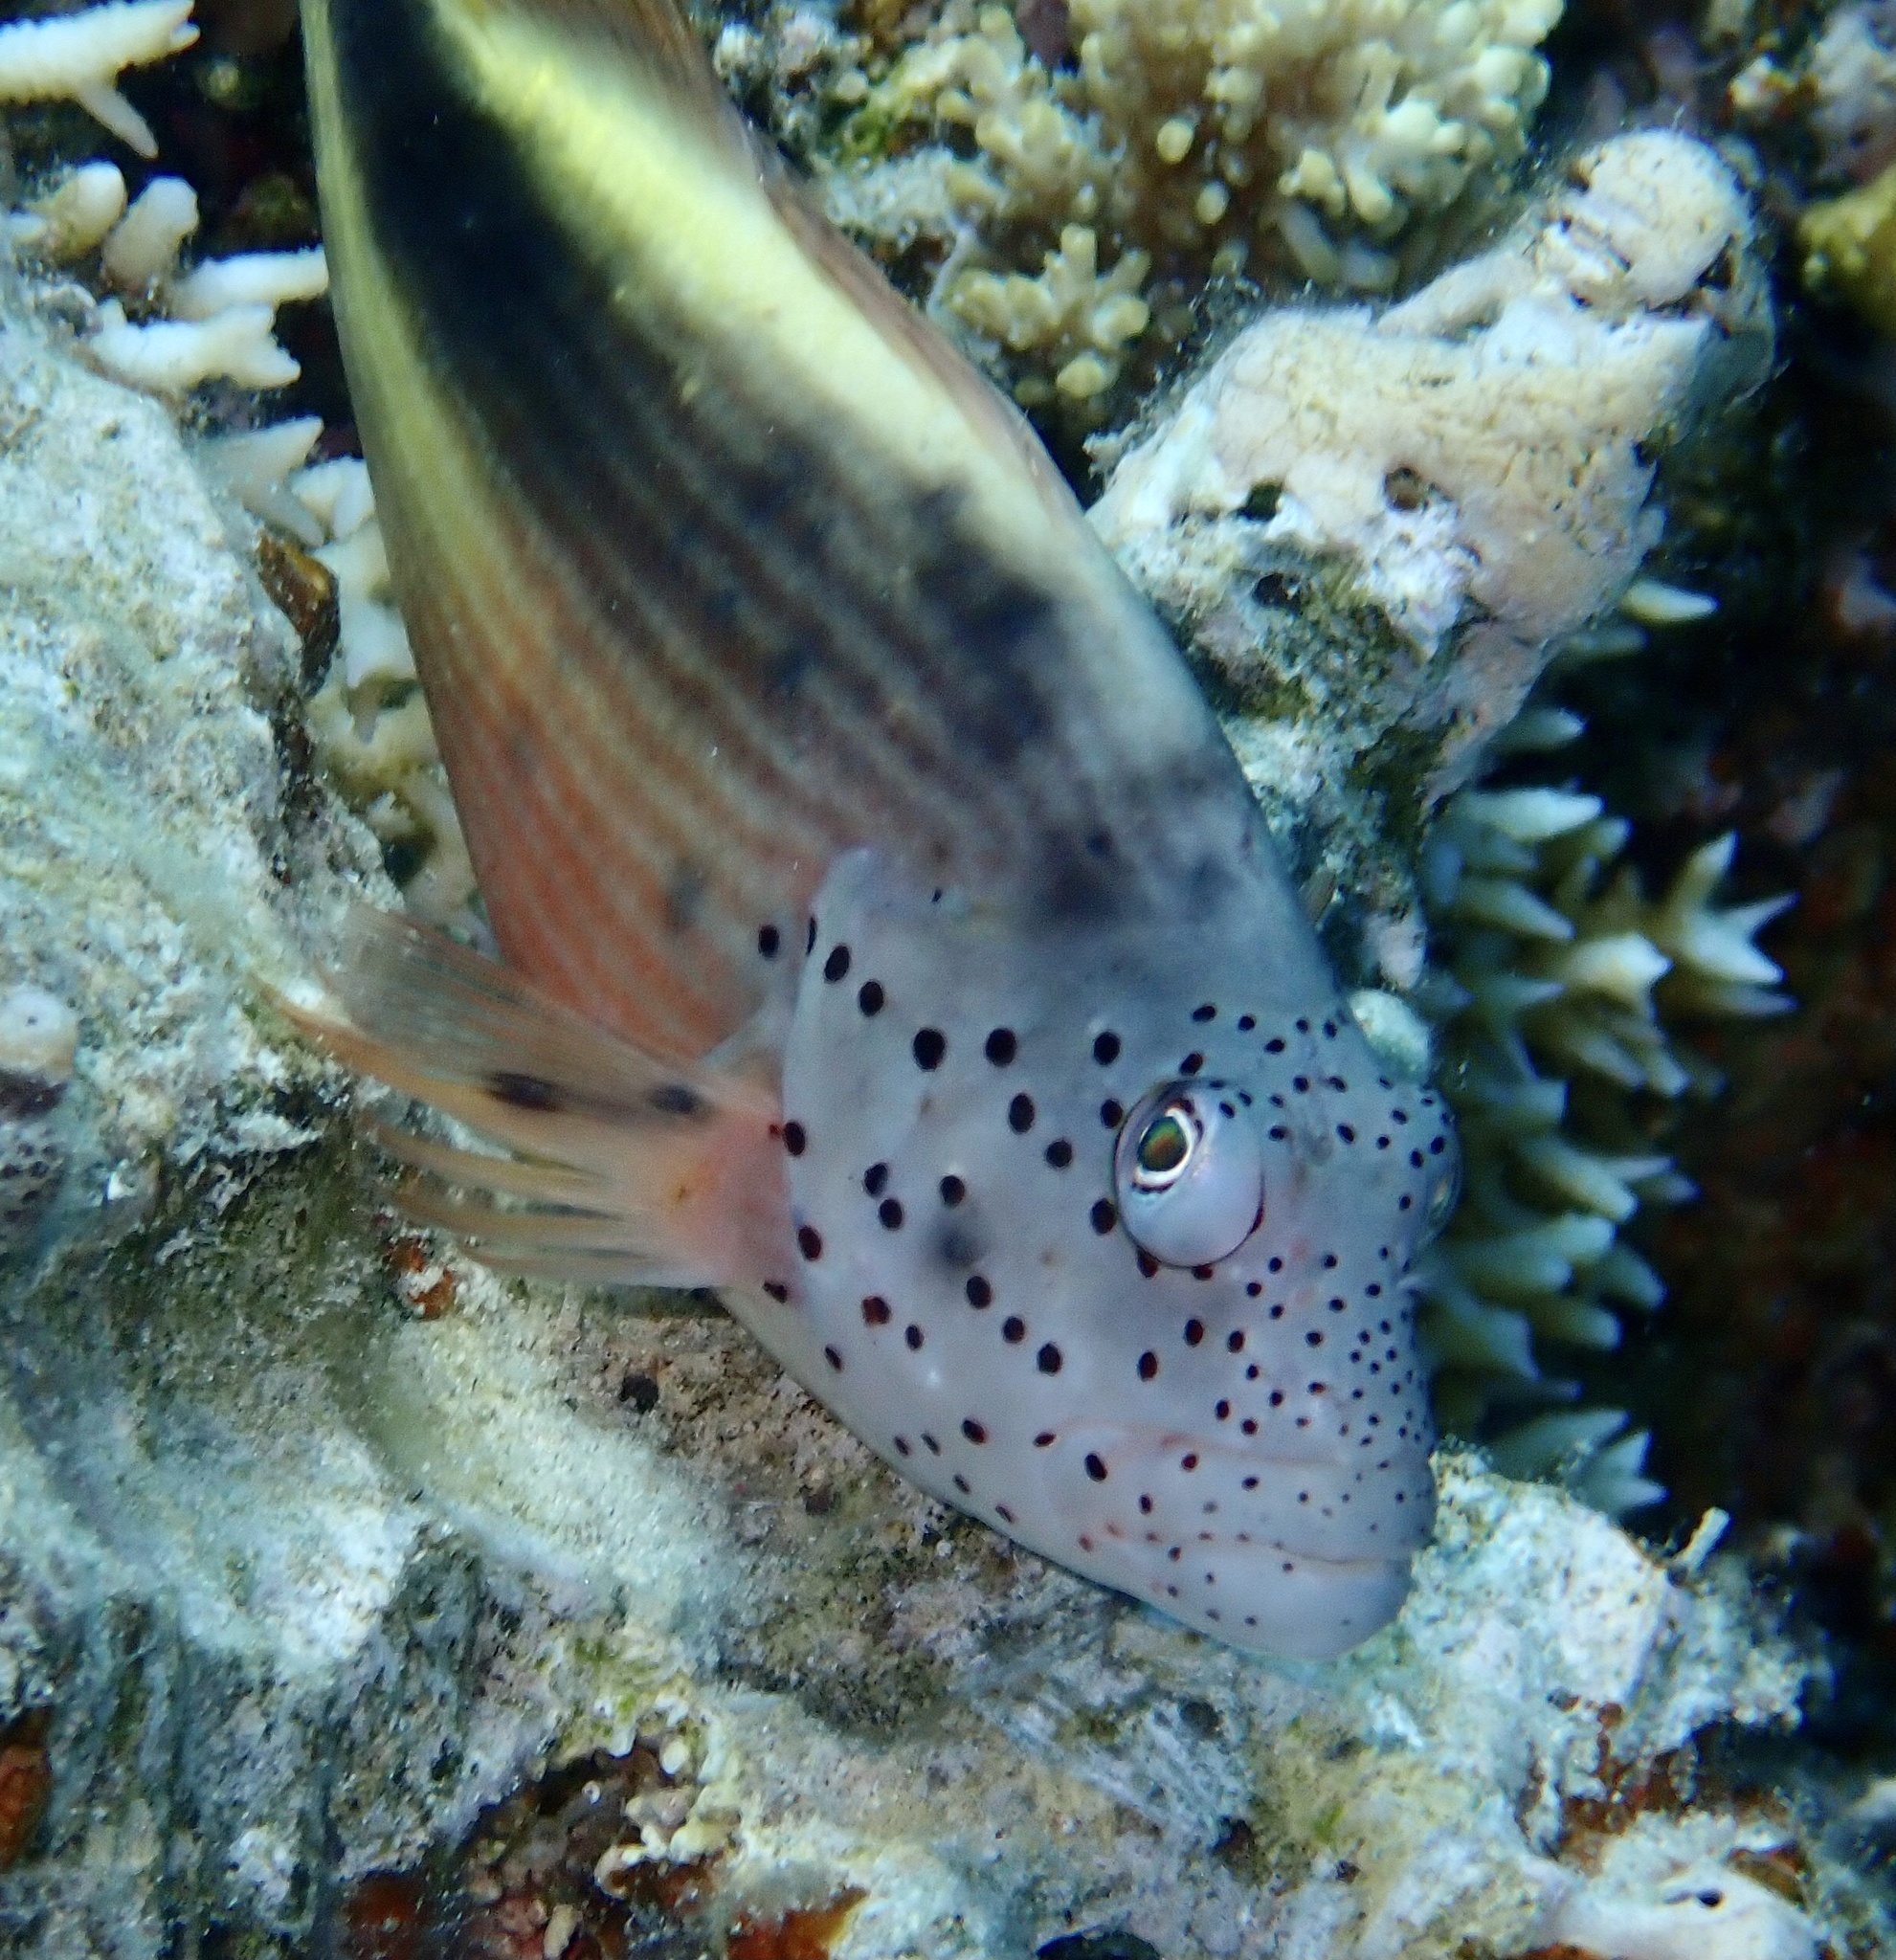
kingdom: Animalia
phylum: Chordata
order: Perciformes
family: Cirrhitidae
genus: Paracirrhites
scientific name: Paracirrhites forsteri
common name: Freckled hawkfish
